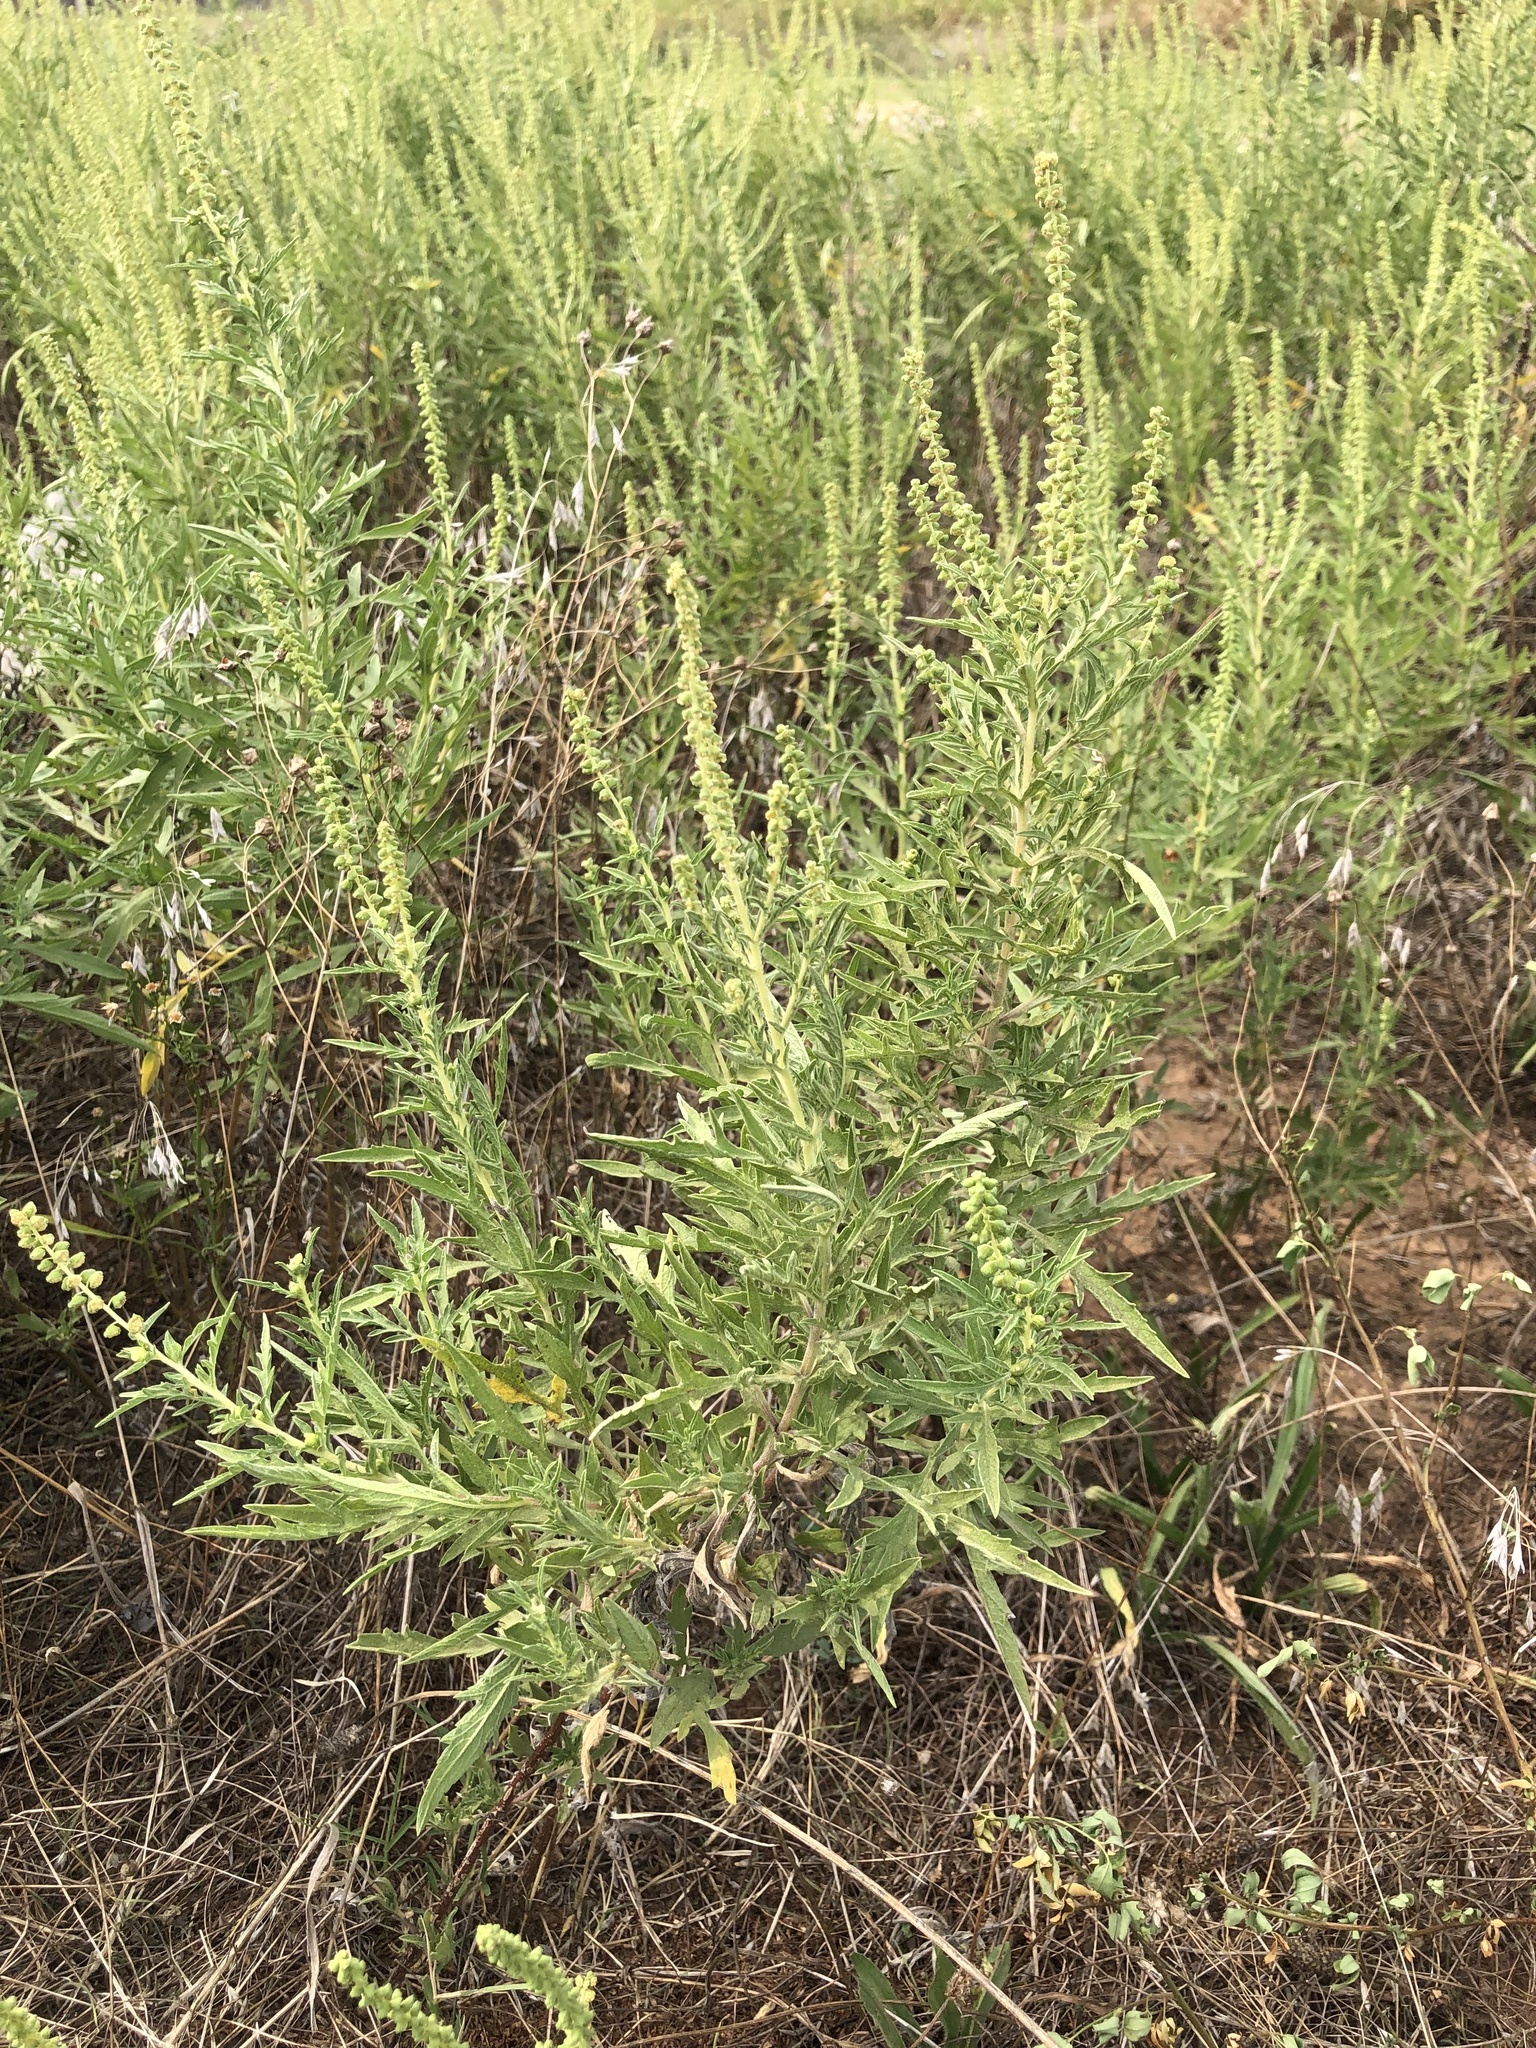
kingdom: Plantae
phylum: Tracheophyta
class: Magnoliopsida
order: Asterales
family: Asteraceae
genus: Ambrosia
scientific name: Ambrosia psilostachya
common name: Perennial ragweed
